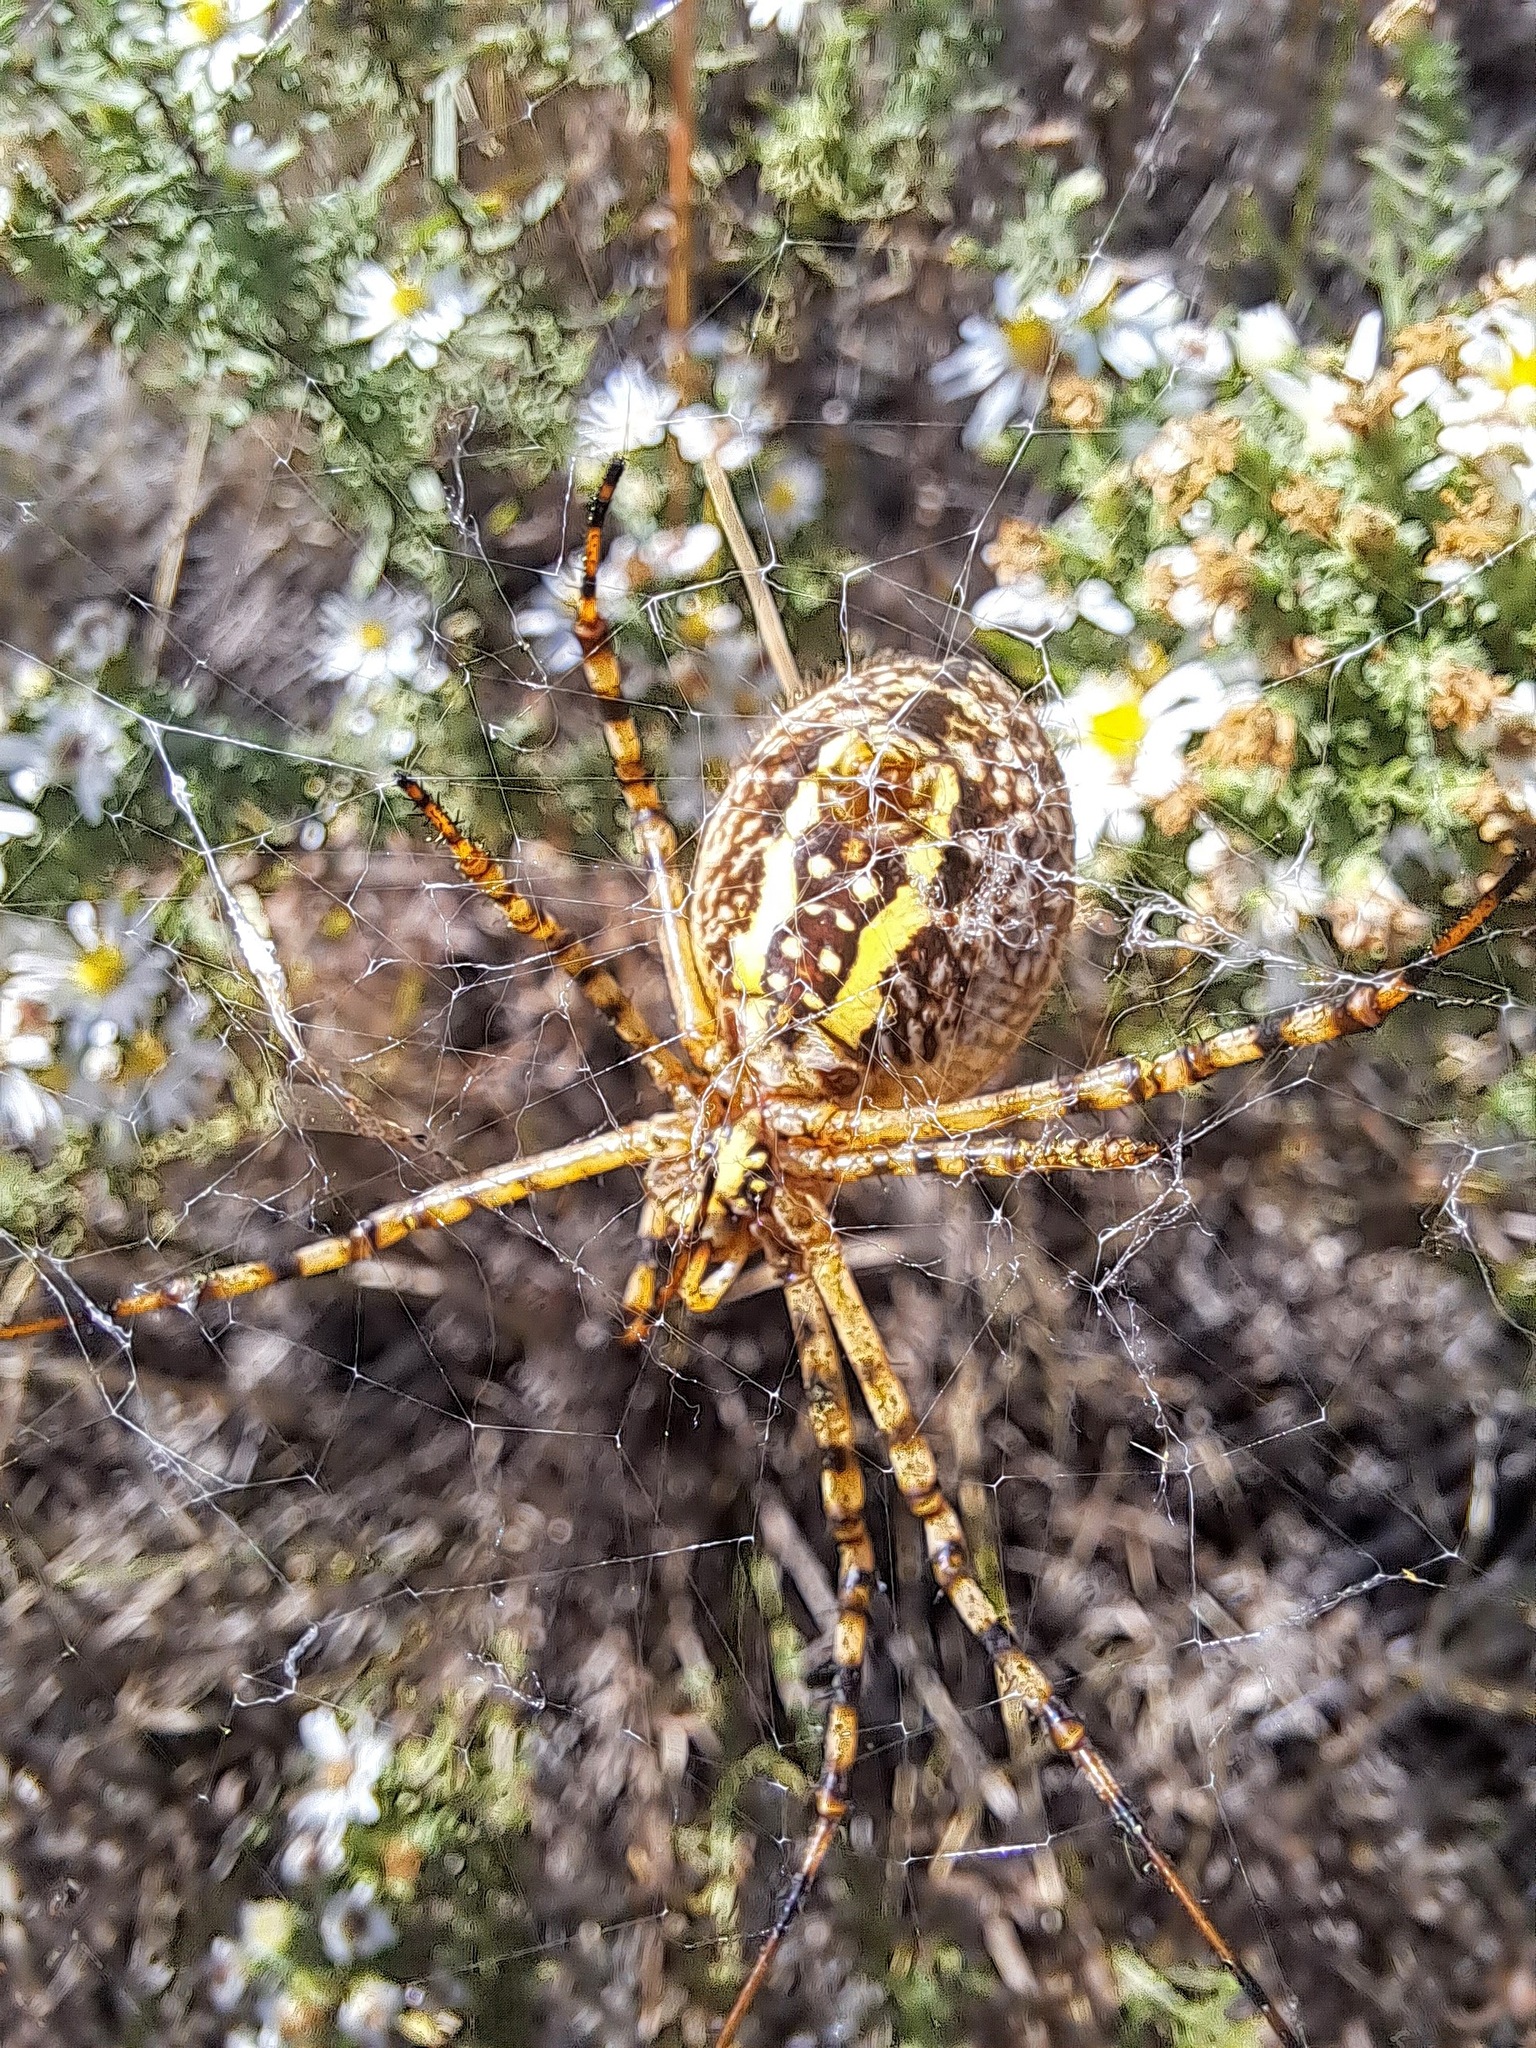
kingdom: Animalia
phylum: Arthropoda
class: Arachnida
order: Araneae
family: Araneidae
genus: Argiope
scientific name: Argiope trifasciata
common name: Banded garden spider
